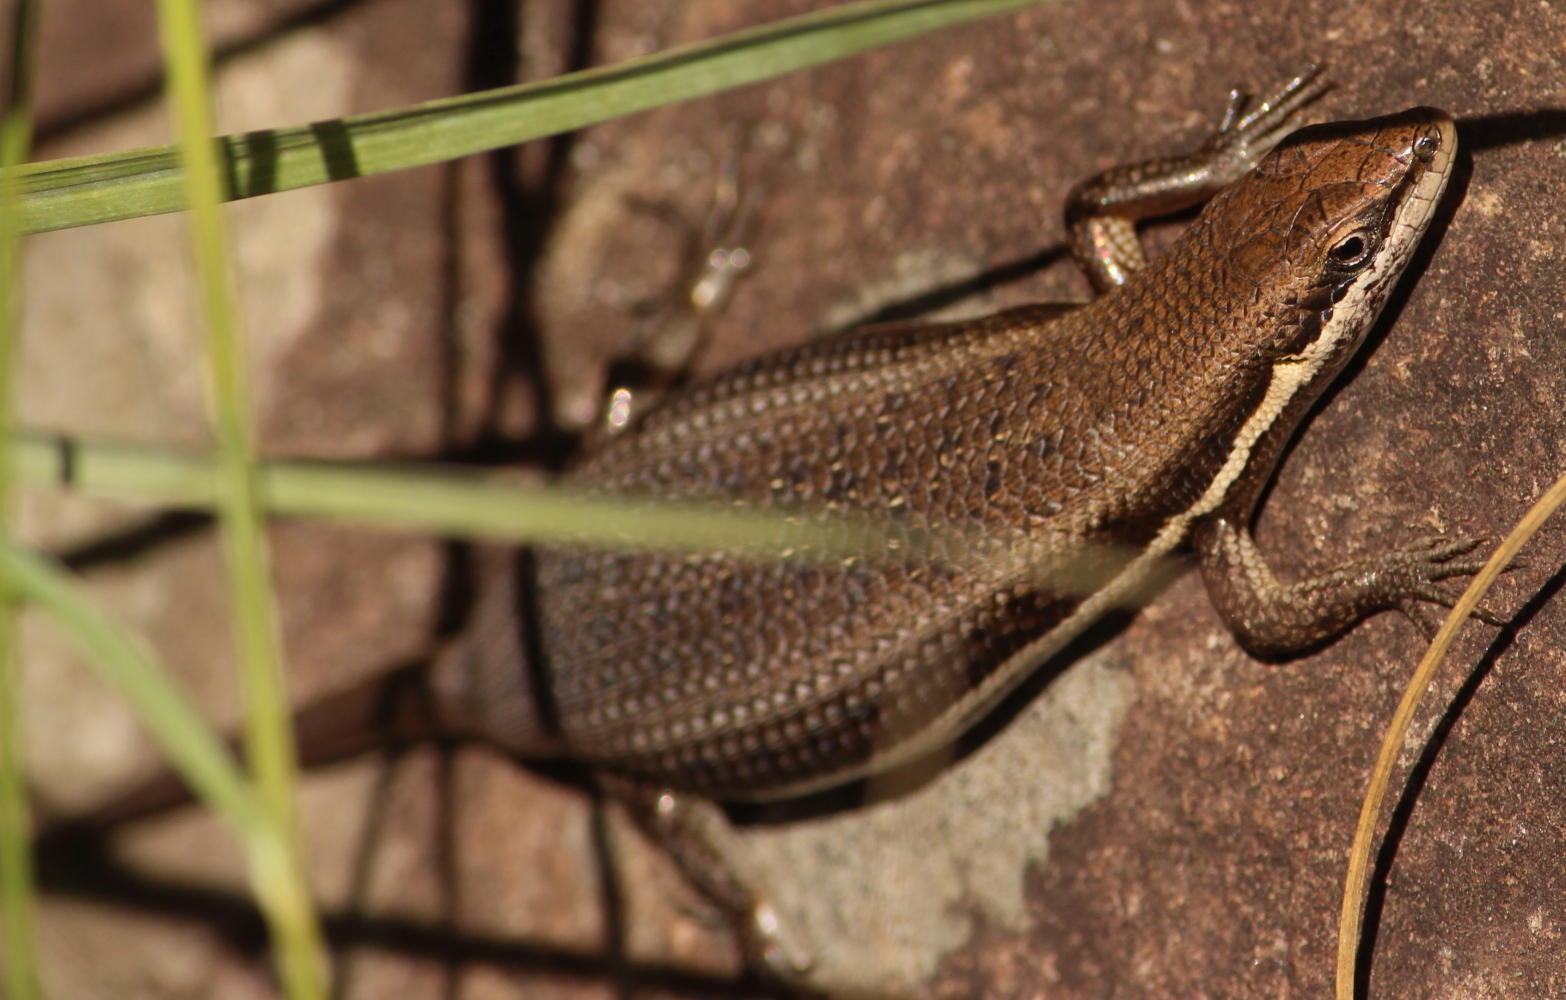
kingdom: Animalia
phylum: Chordata
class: Squamata
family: Scincidae
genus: Trachylepis
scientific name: Trachylepis varia
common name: Eastern variable skink
